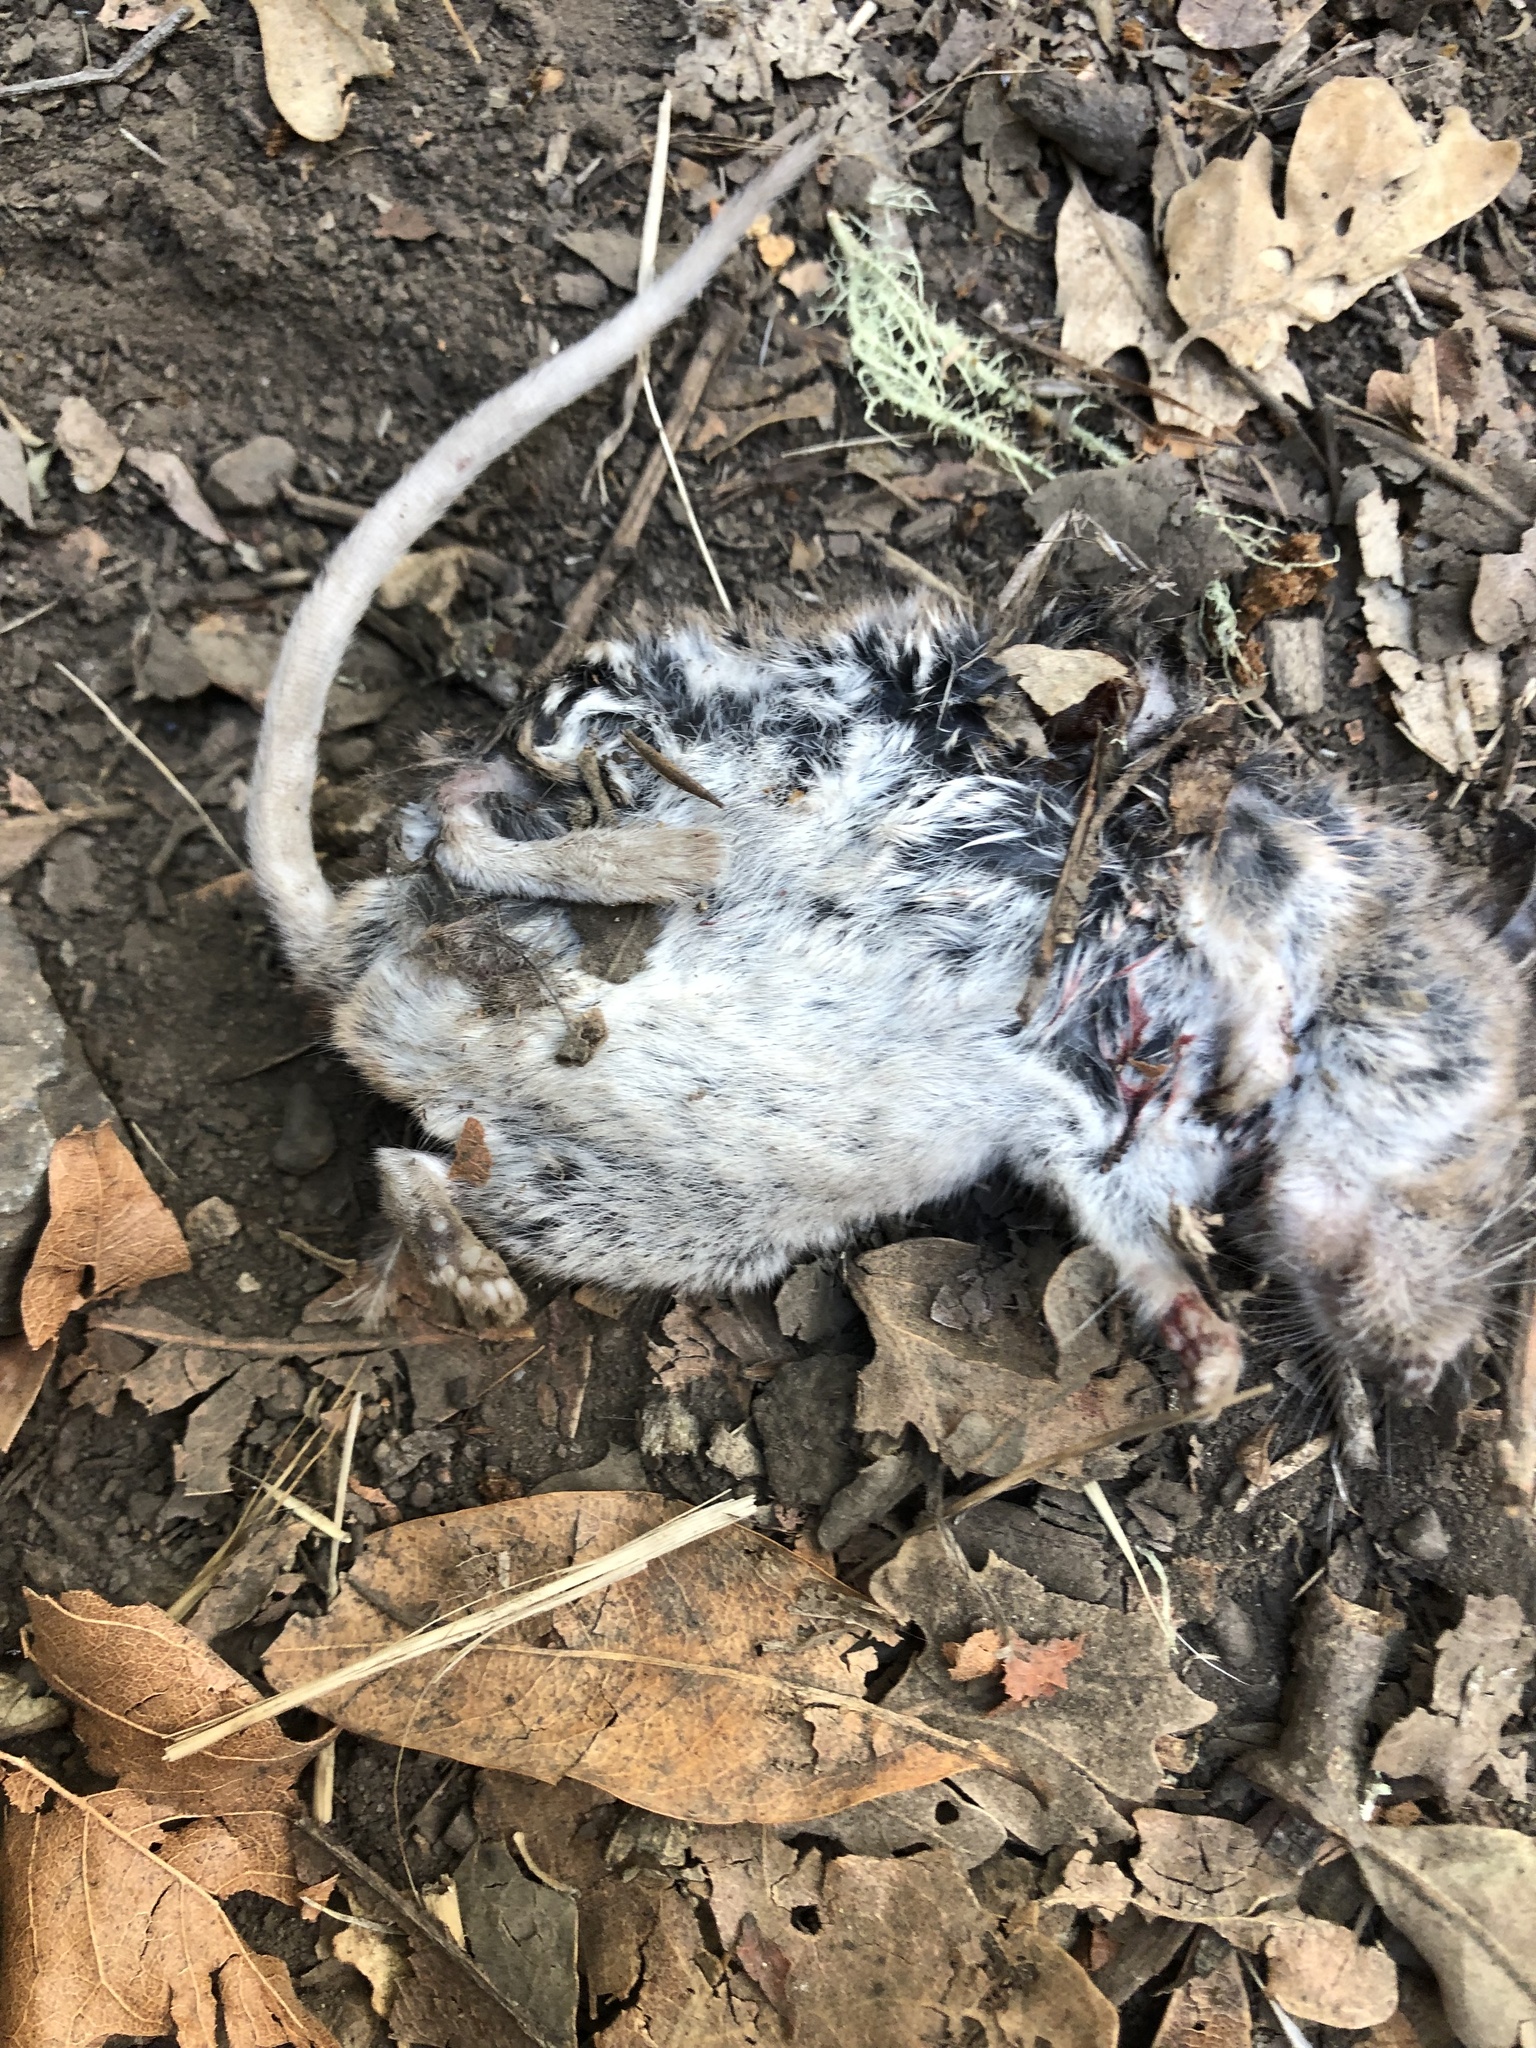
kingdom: Animalia
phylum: Chordata
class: Mammalia
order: Rodentia
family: Cricetidae
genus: Neotoma
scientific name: Neotoma fuscipes
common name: Dusky-footed woodrat
